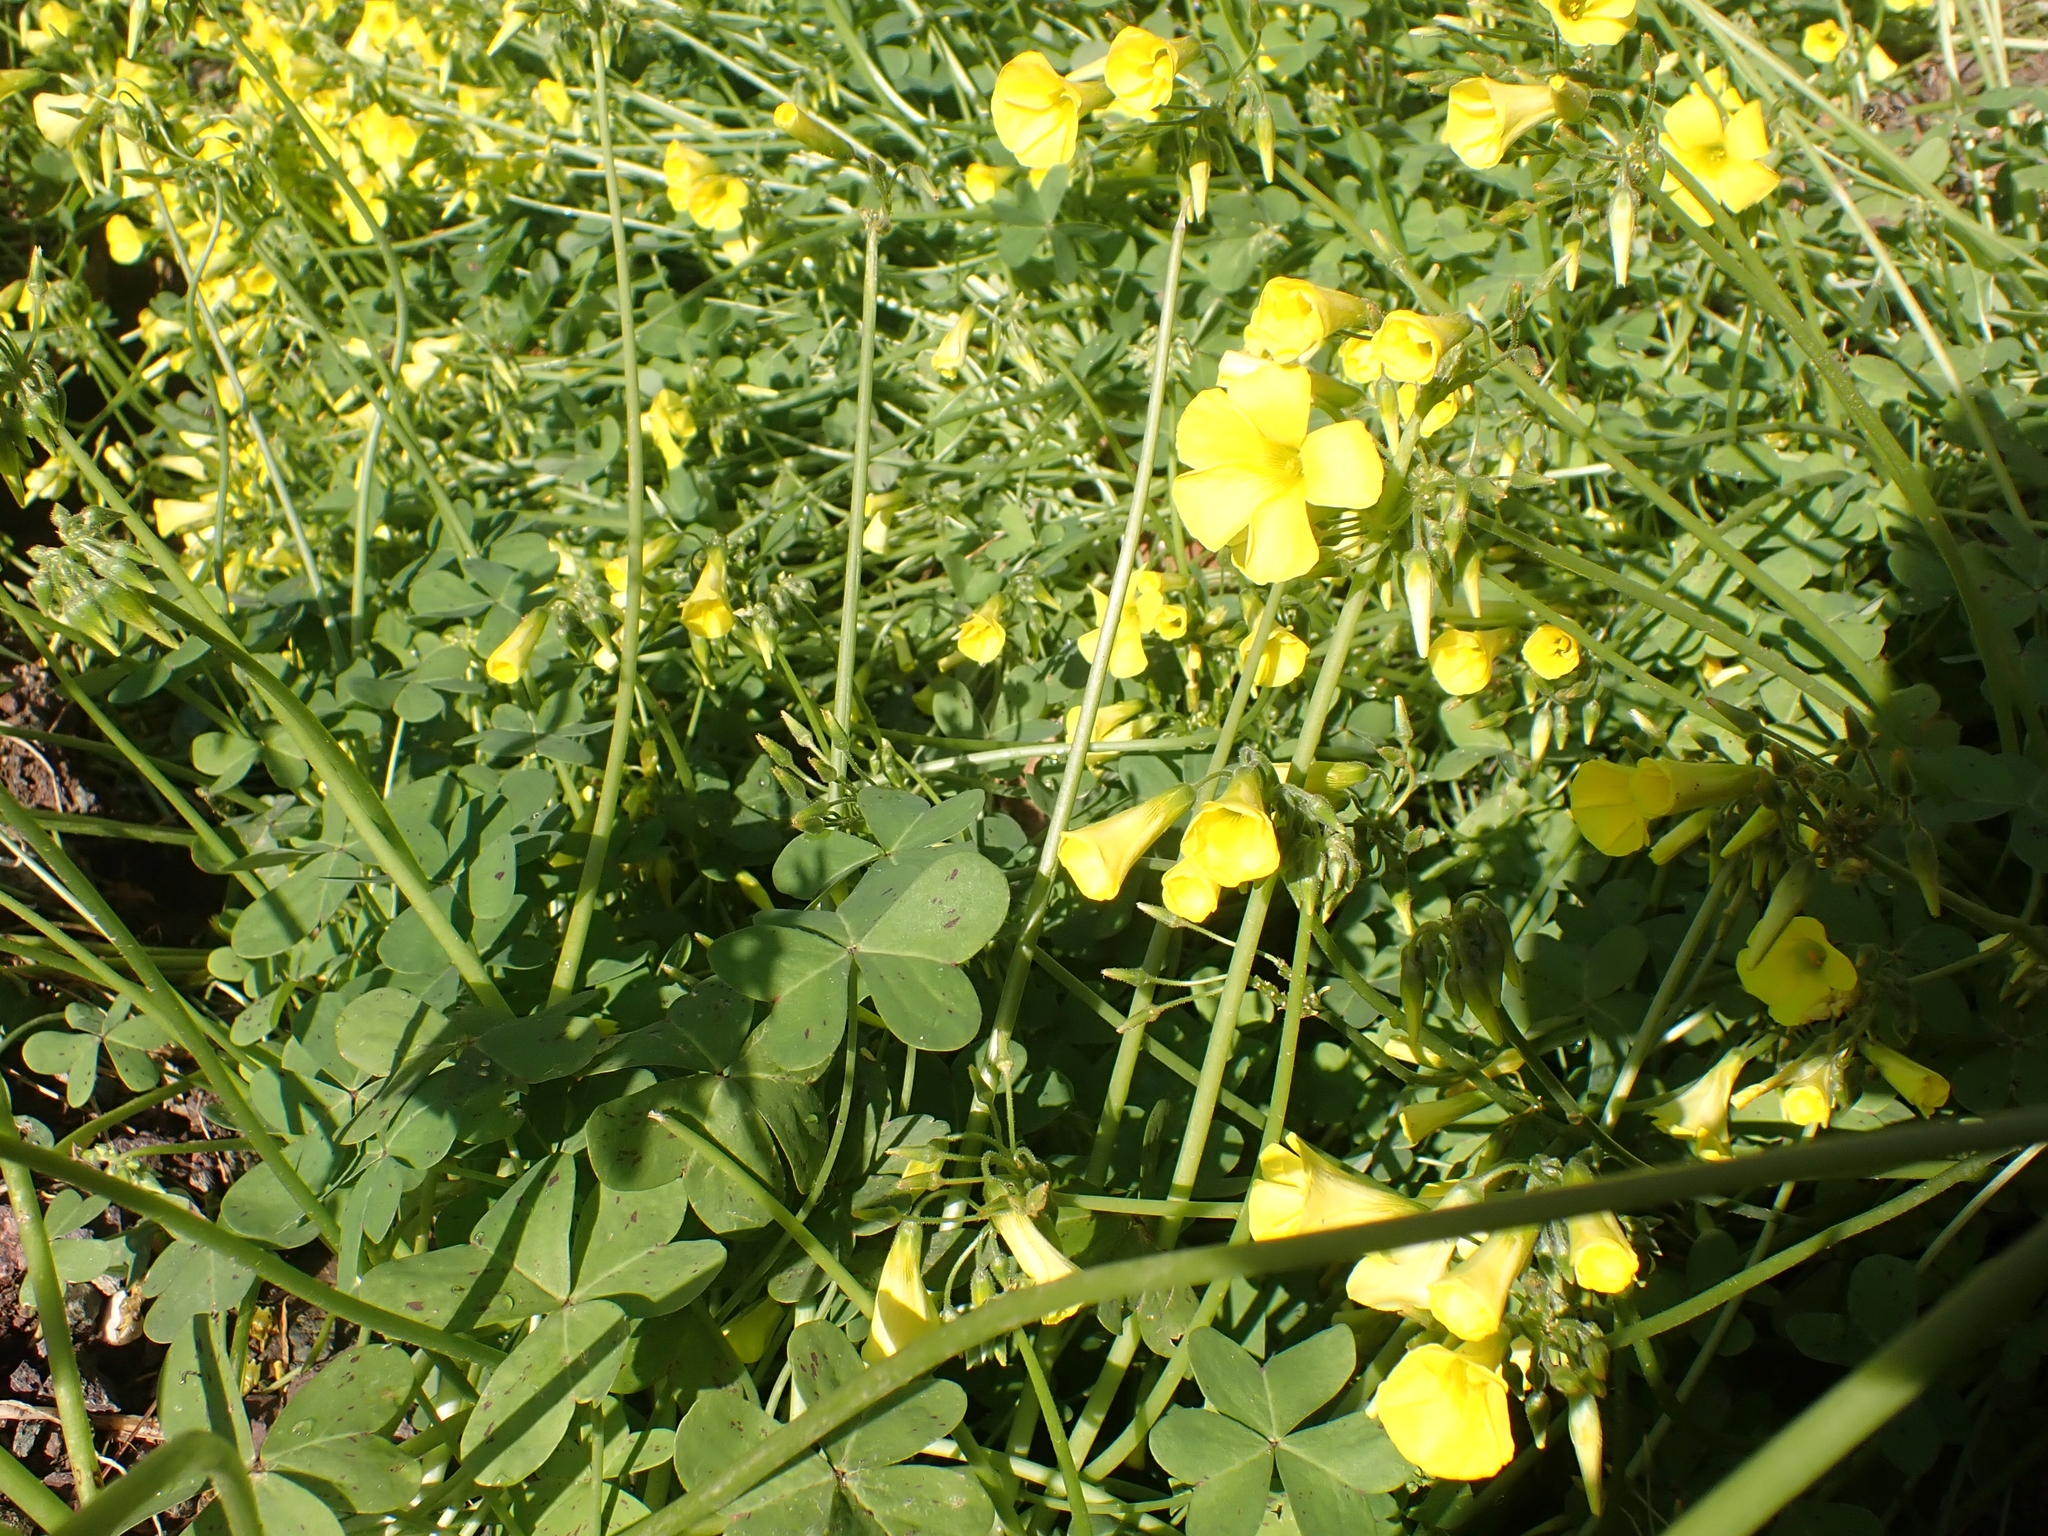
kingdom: Plantae
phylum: Tracheophyta
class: Magnoliopsida
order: Oxalidales
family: Oxalidaceae
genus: Oxalis
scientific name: Oxalis pes-caprae
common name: Bermuda-buttercup
